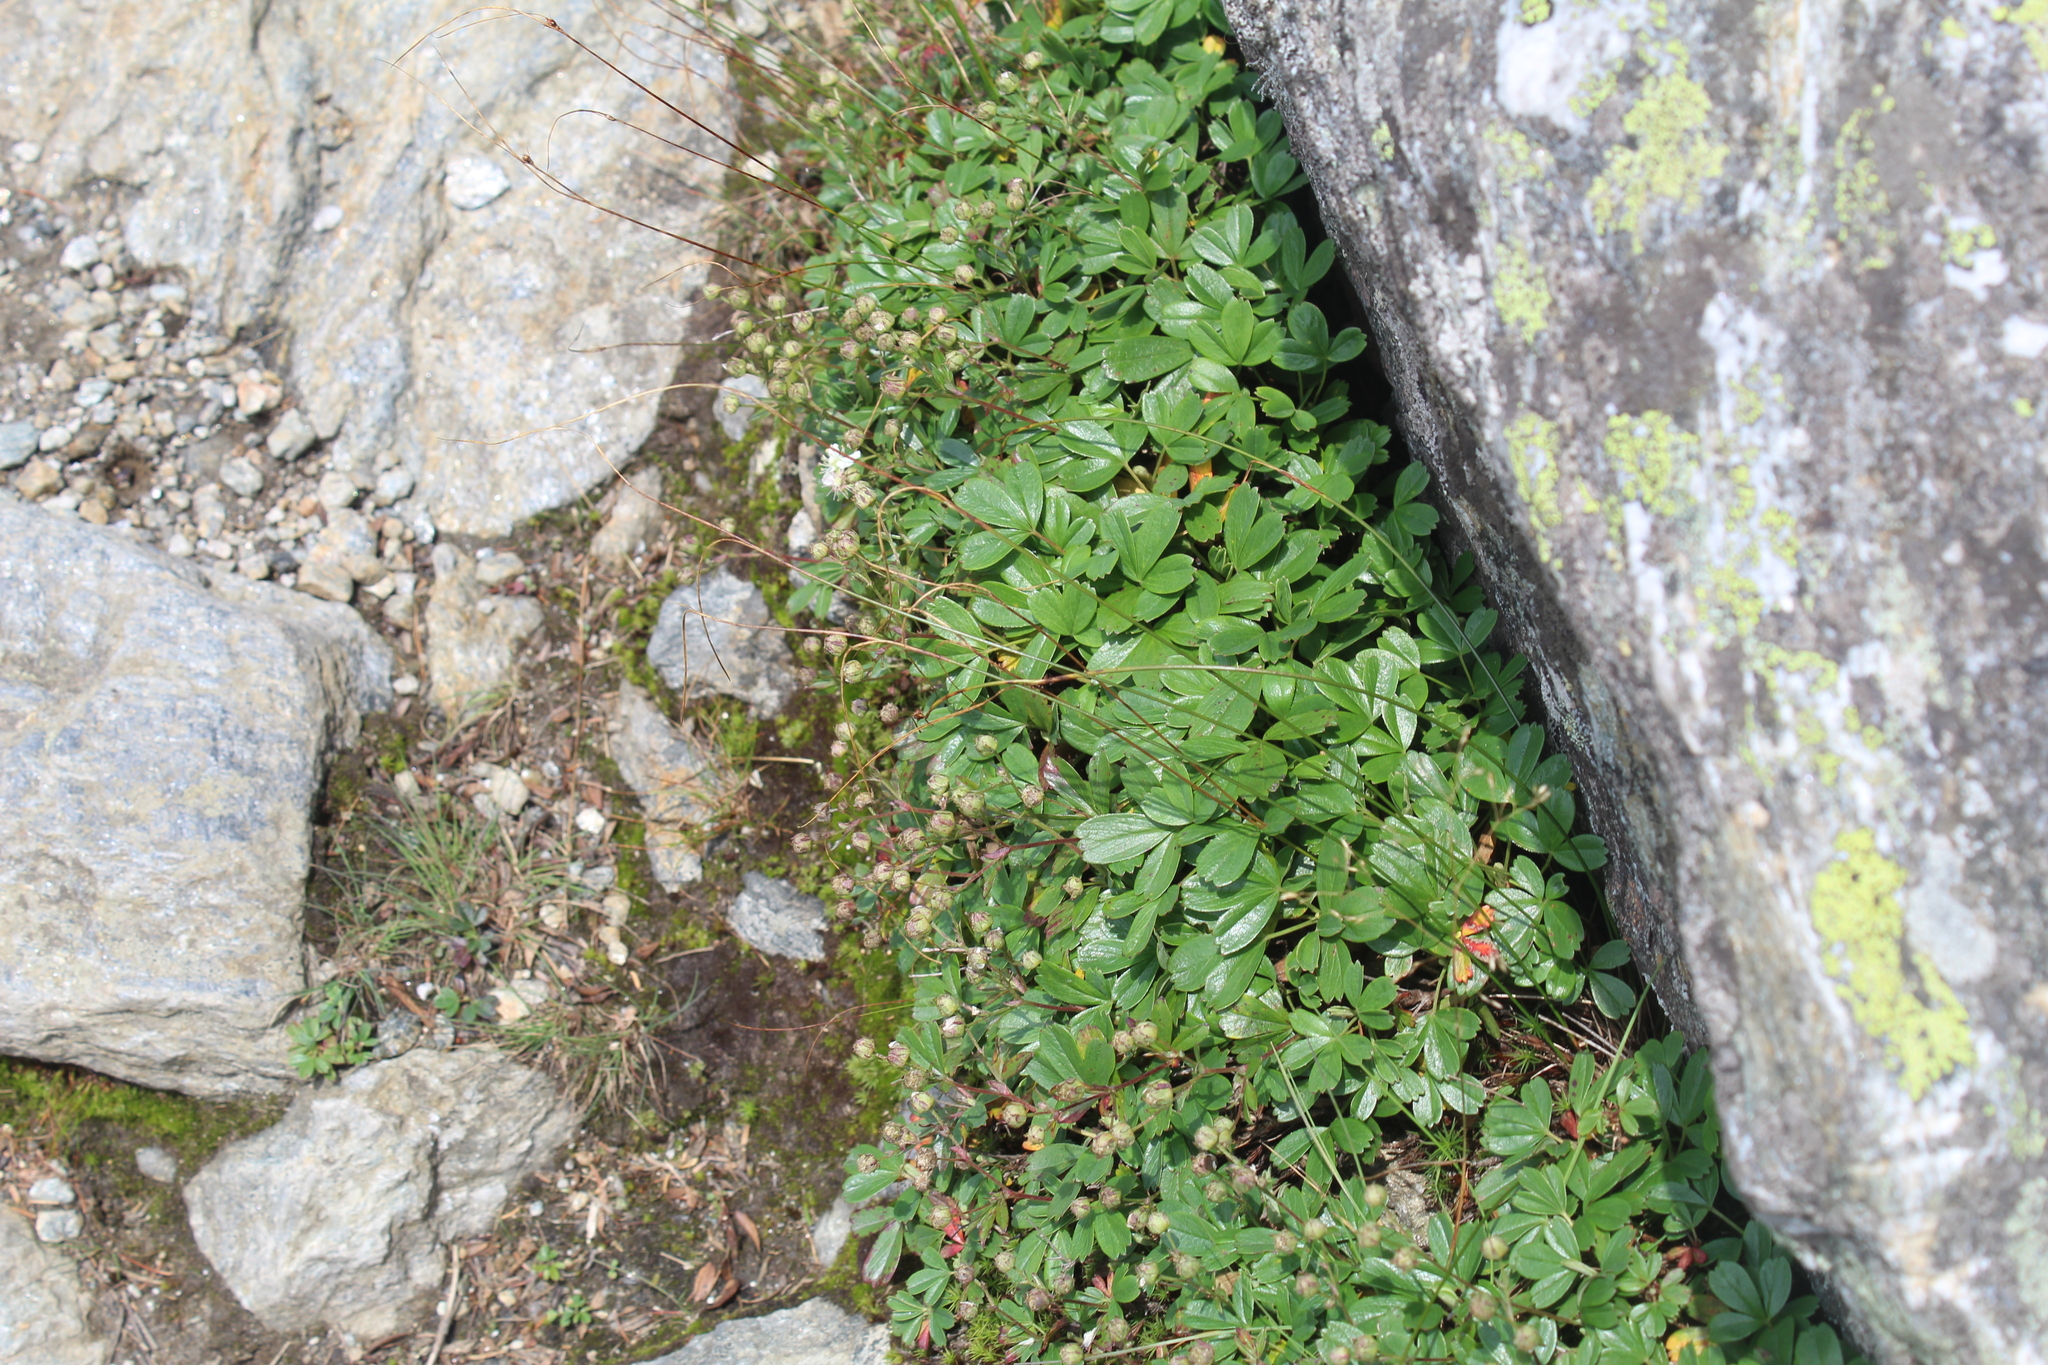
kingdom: Plantae
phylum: Tracheophyta
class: Magnoliopsida
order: Rosales
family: Rosaceae
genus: Sibbaldia
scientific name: Sibbaldia tridentata
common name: Three-toothed cinquefoil
